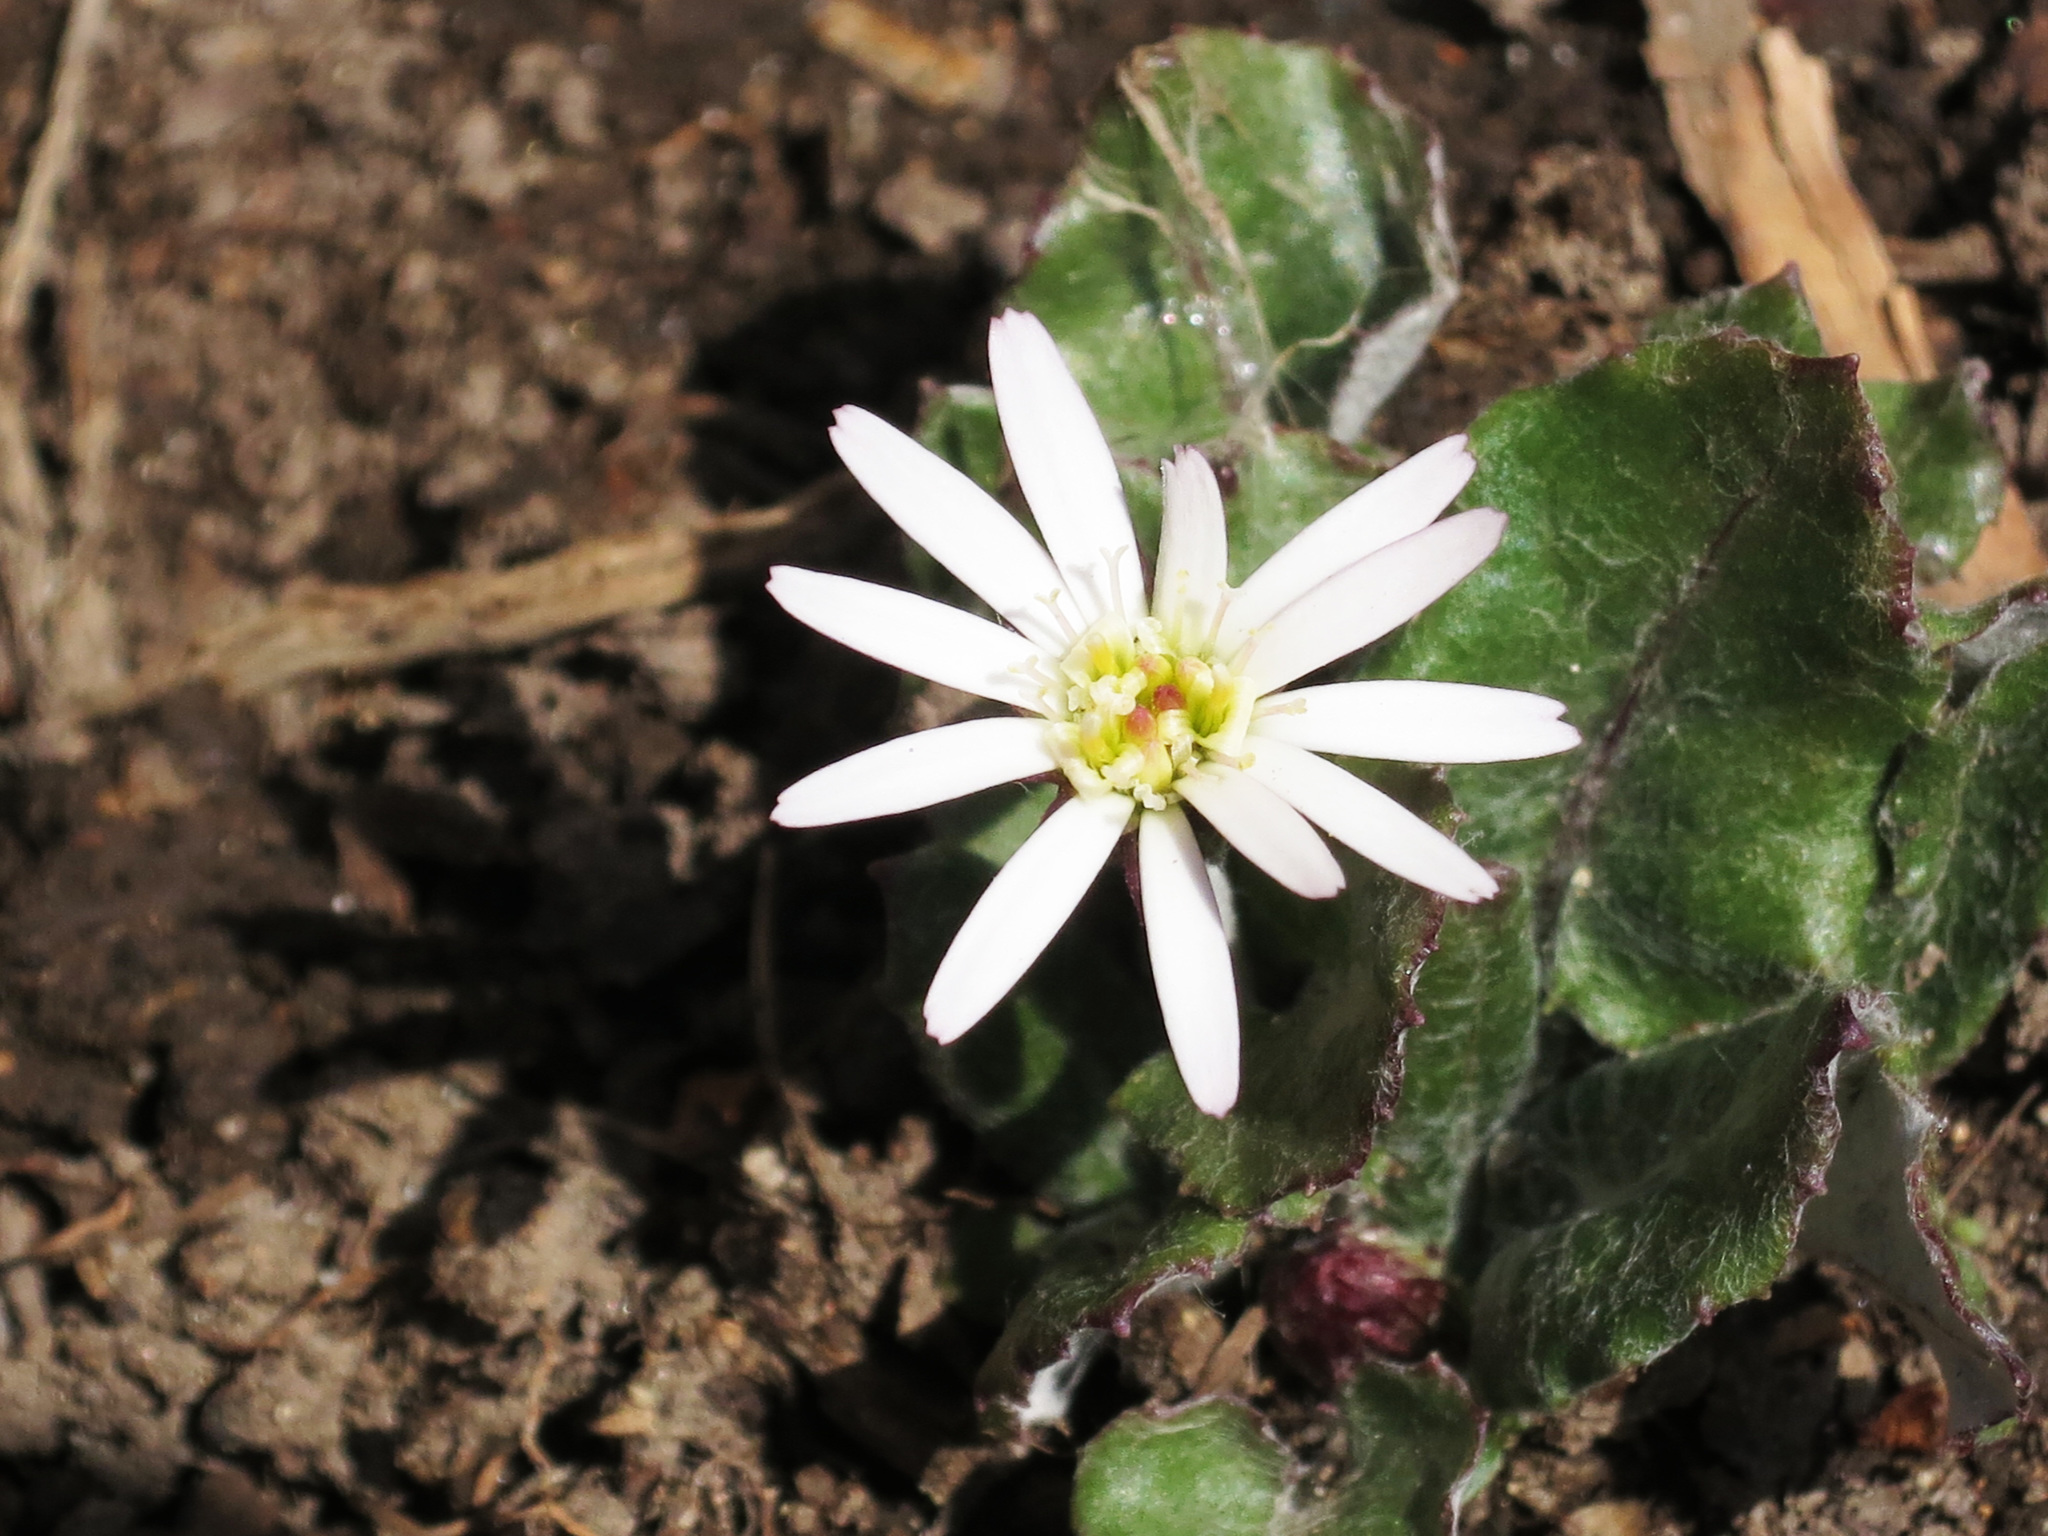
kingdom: Plantae
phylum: Tracheophyta
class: Magnoliopsida
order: Asterales
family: Asteraceae
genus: Leibnitzia
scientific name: Leibnitzia anandria
